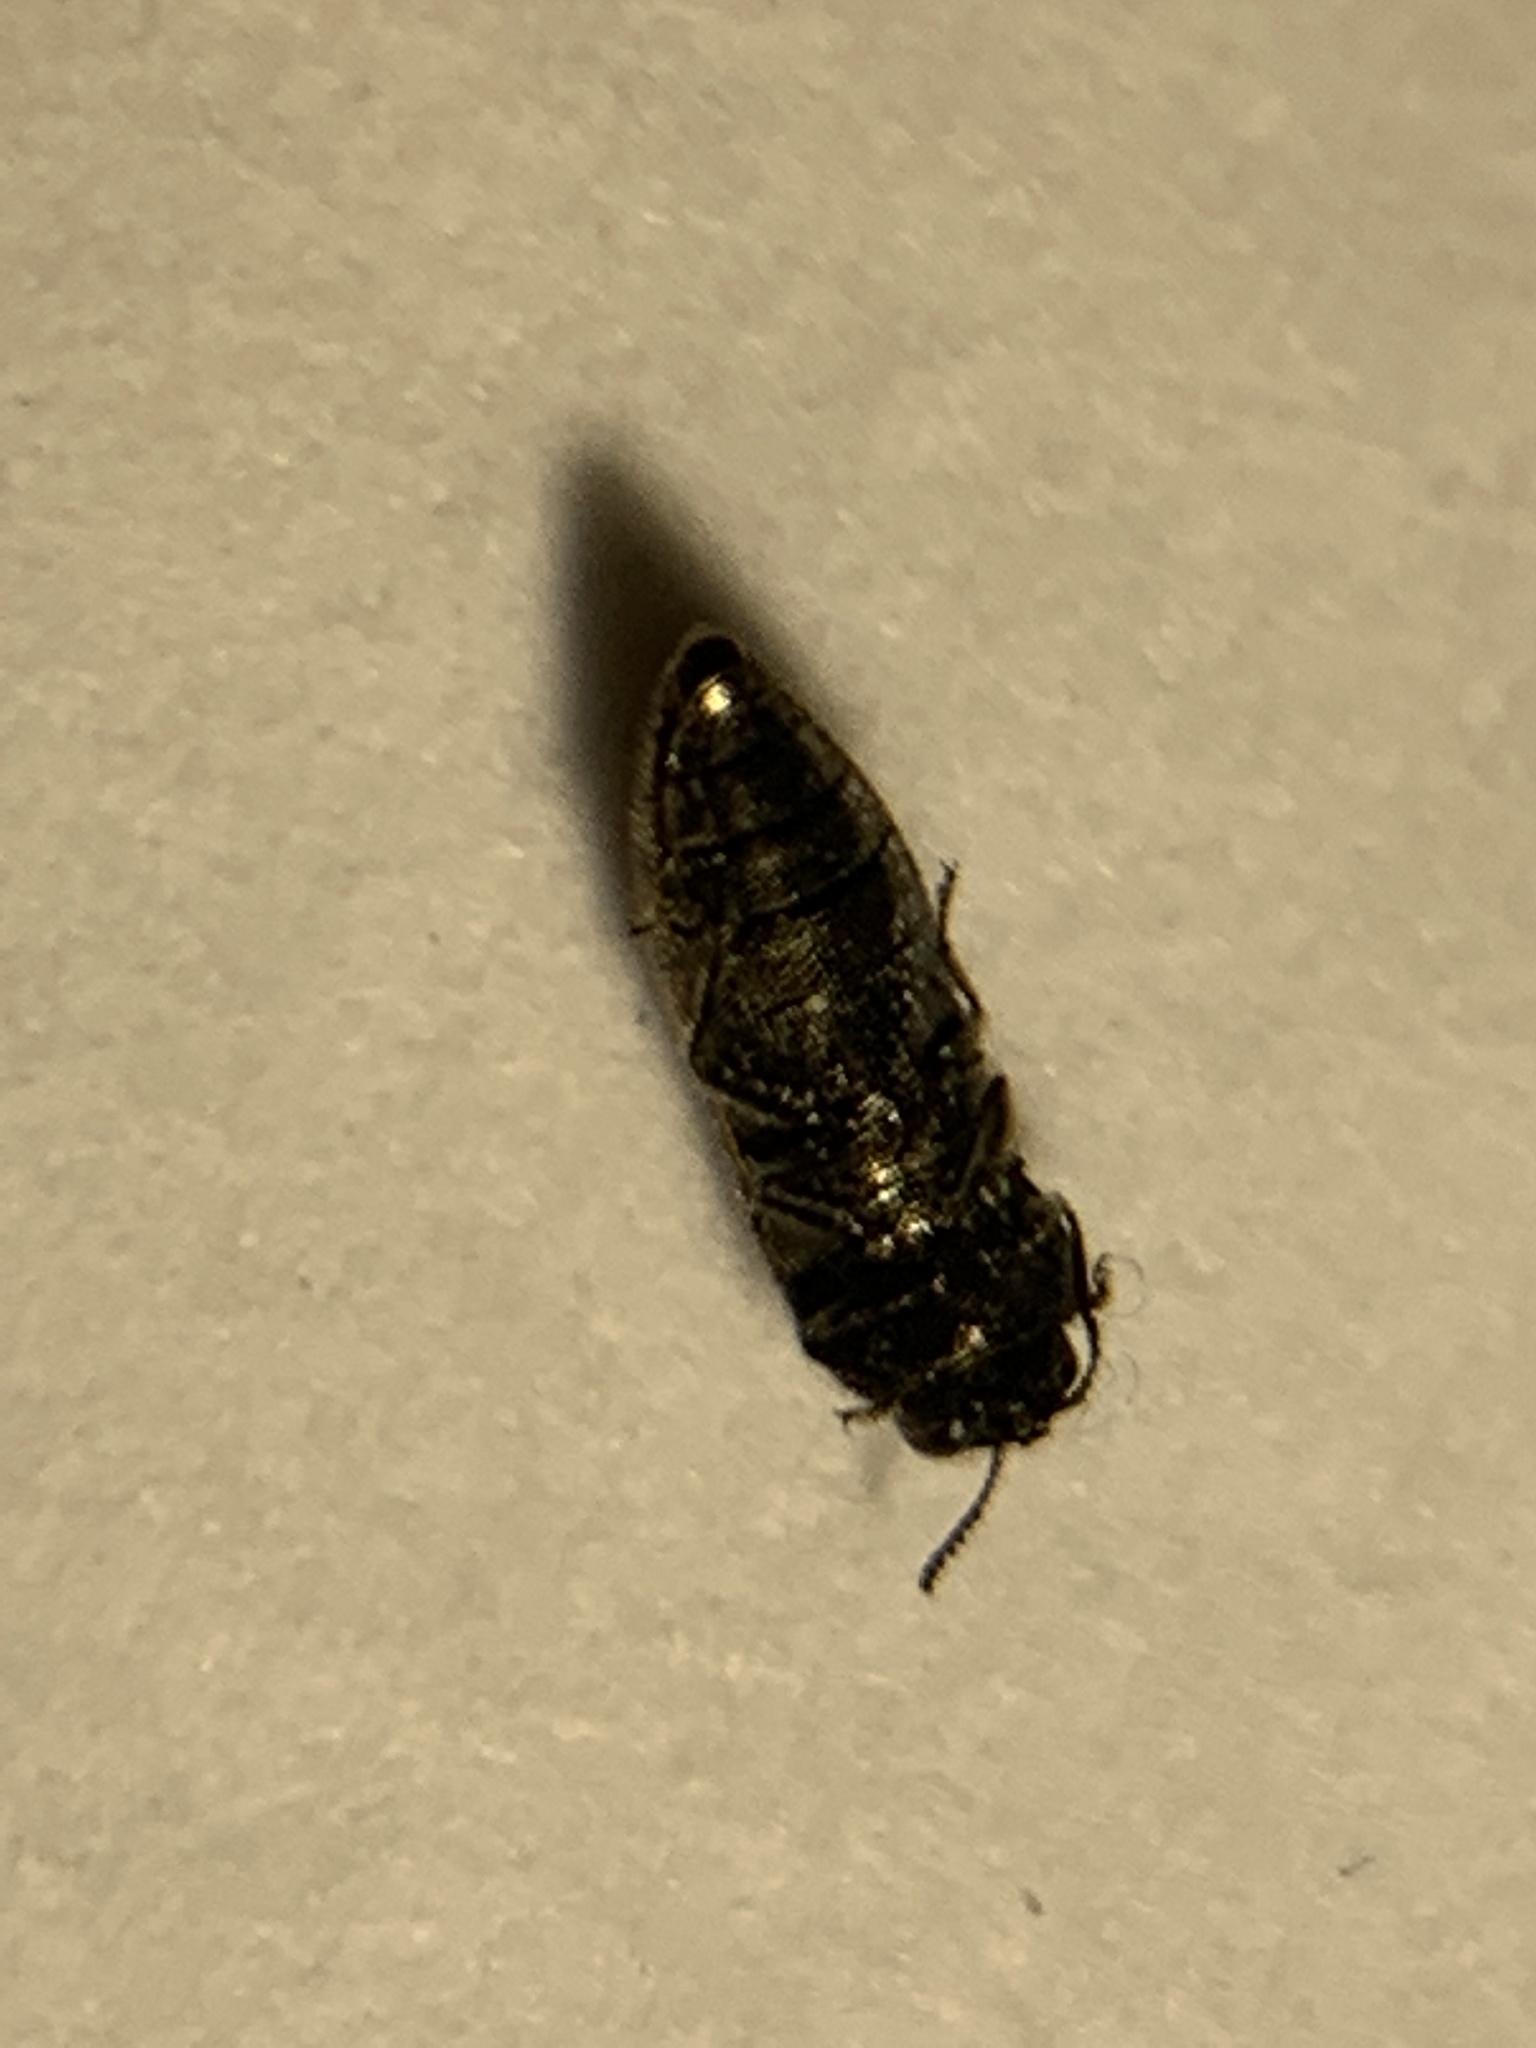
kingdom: Animalia
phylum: Arthropoda
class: Insecta
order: Coleoptera
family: Buprestidae
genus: Acmaeodera
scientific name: Acmaeodera neglecta
